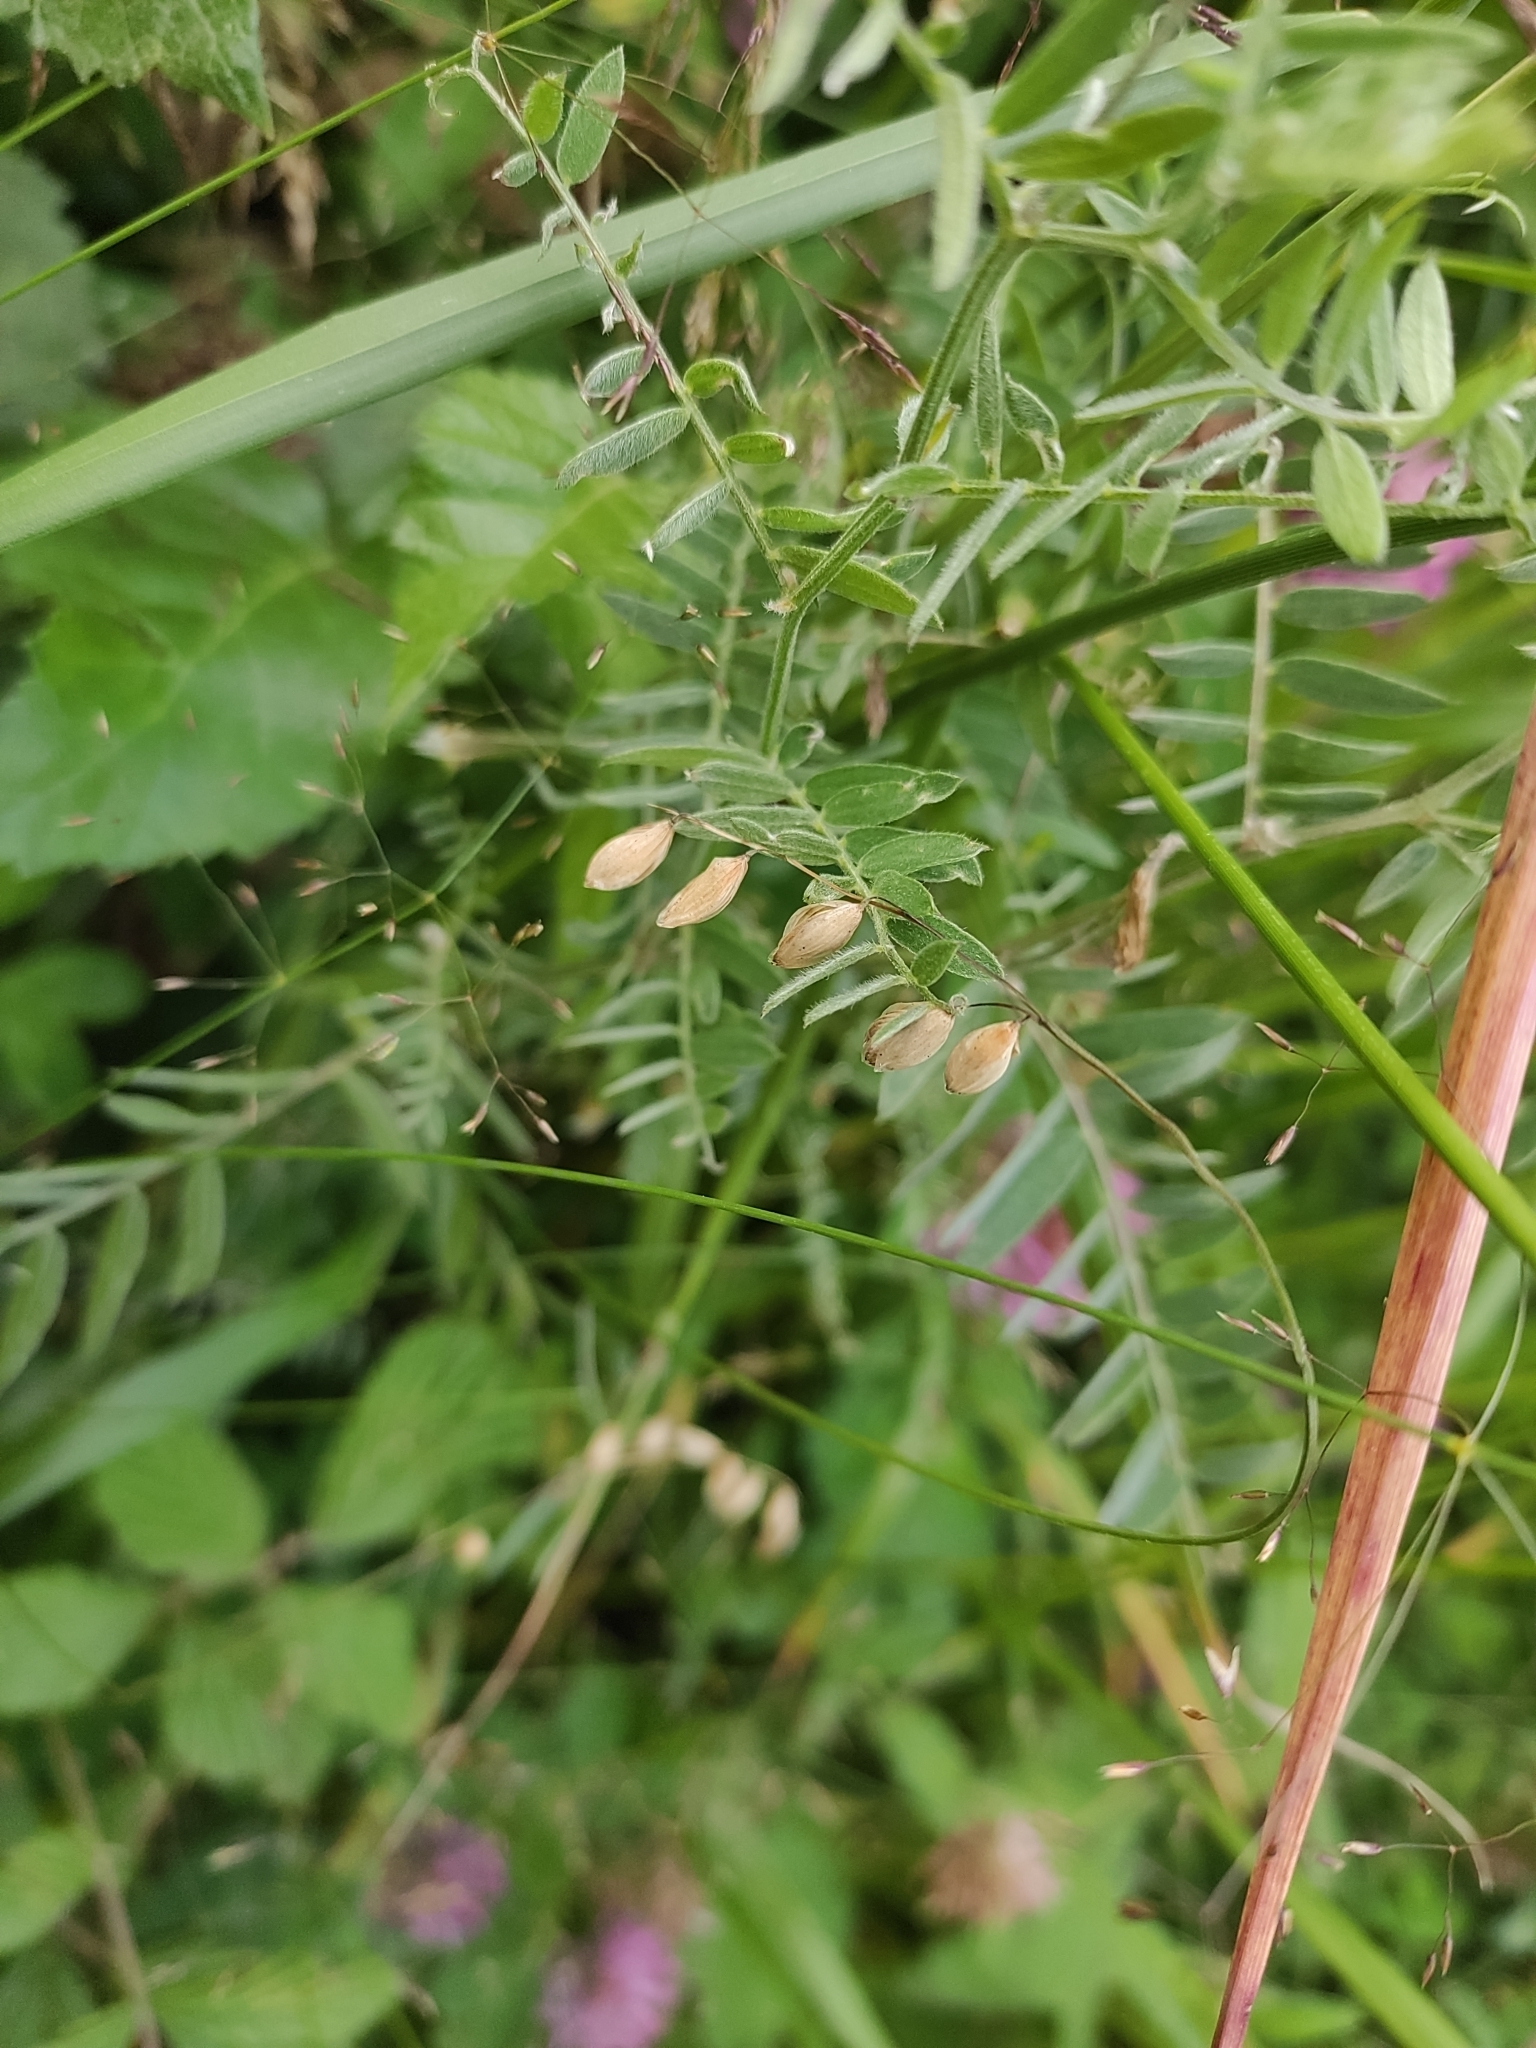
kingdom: Plantae
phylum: Tracheophyta
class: Liliopsida
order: Poales
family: Poaceae
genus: Melica
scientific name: Melica nutans
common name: Mountain melick
